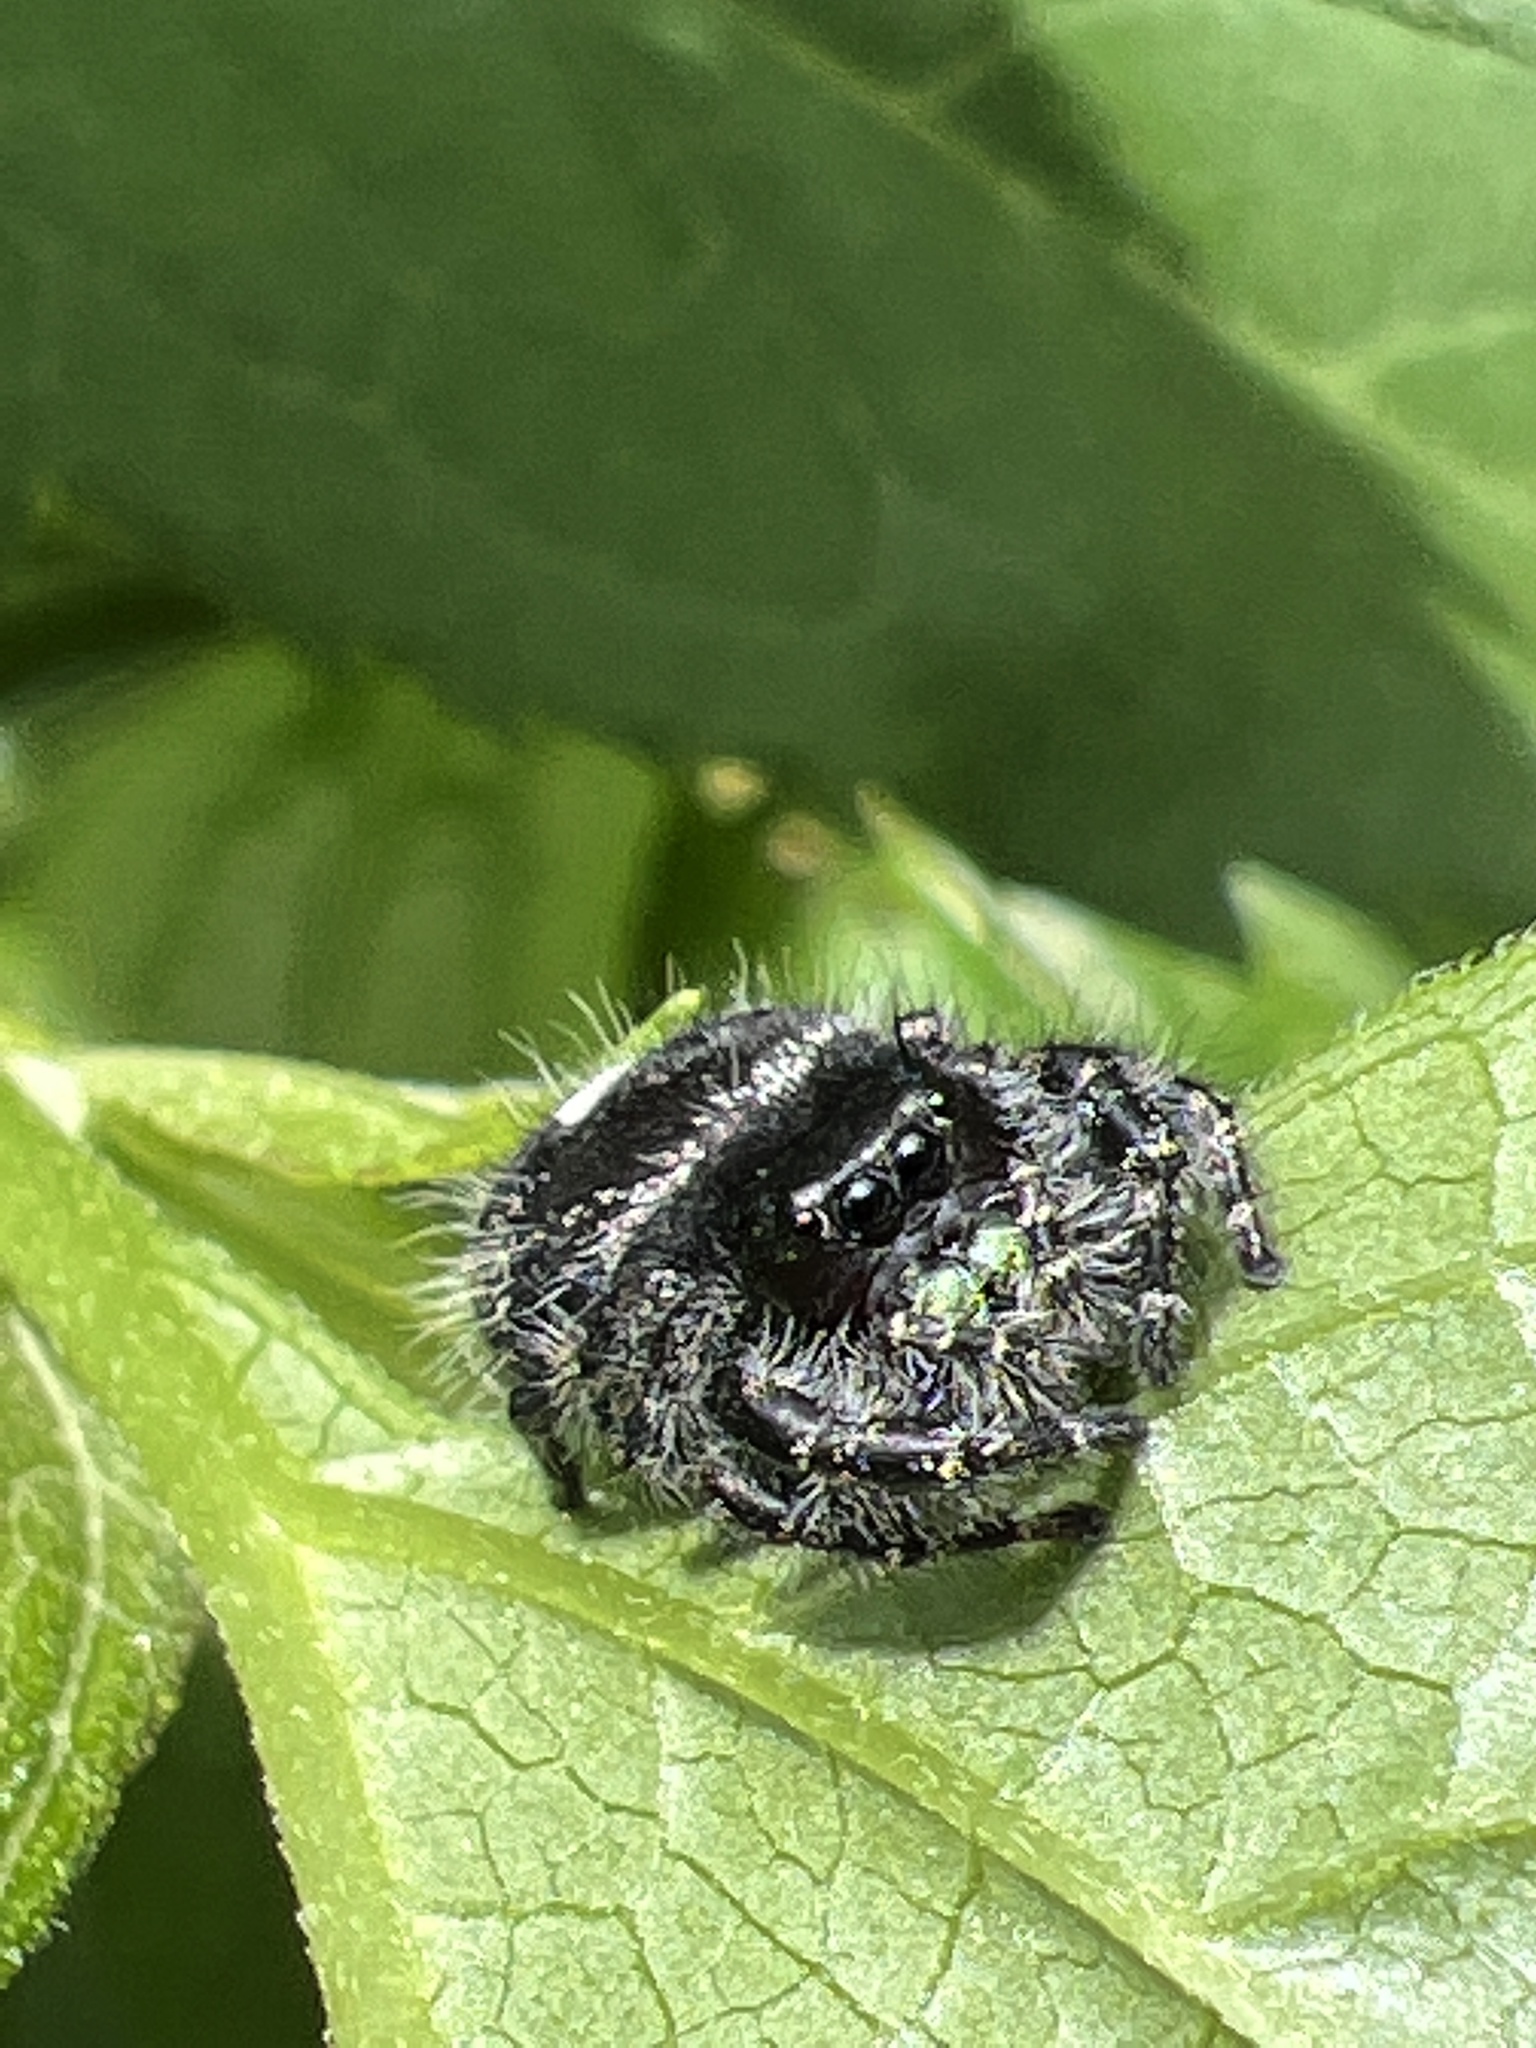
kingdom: Animalia
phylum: Arthropoda
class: Arachnida
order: Araneae
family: Salticidae
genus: Phidippus
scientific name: Phidippus audax
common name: Bold jumper
